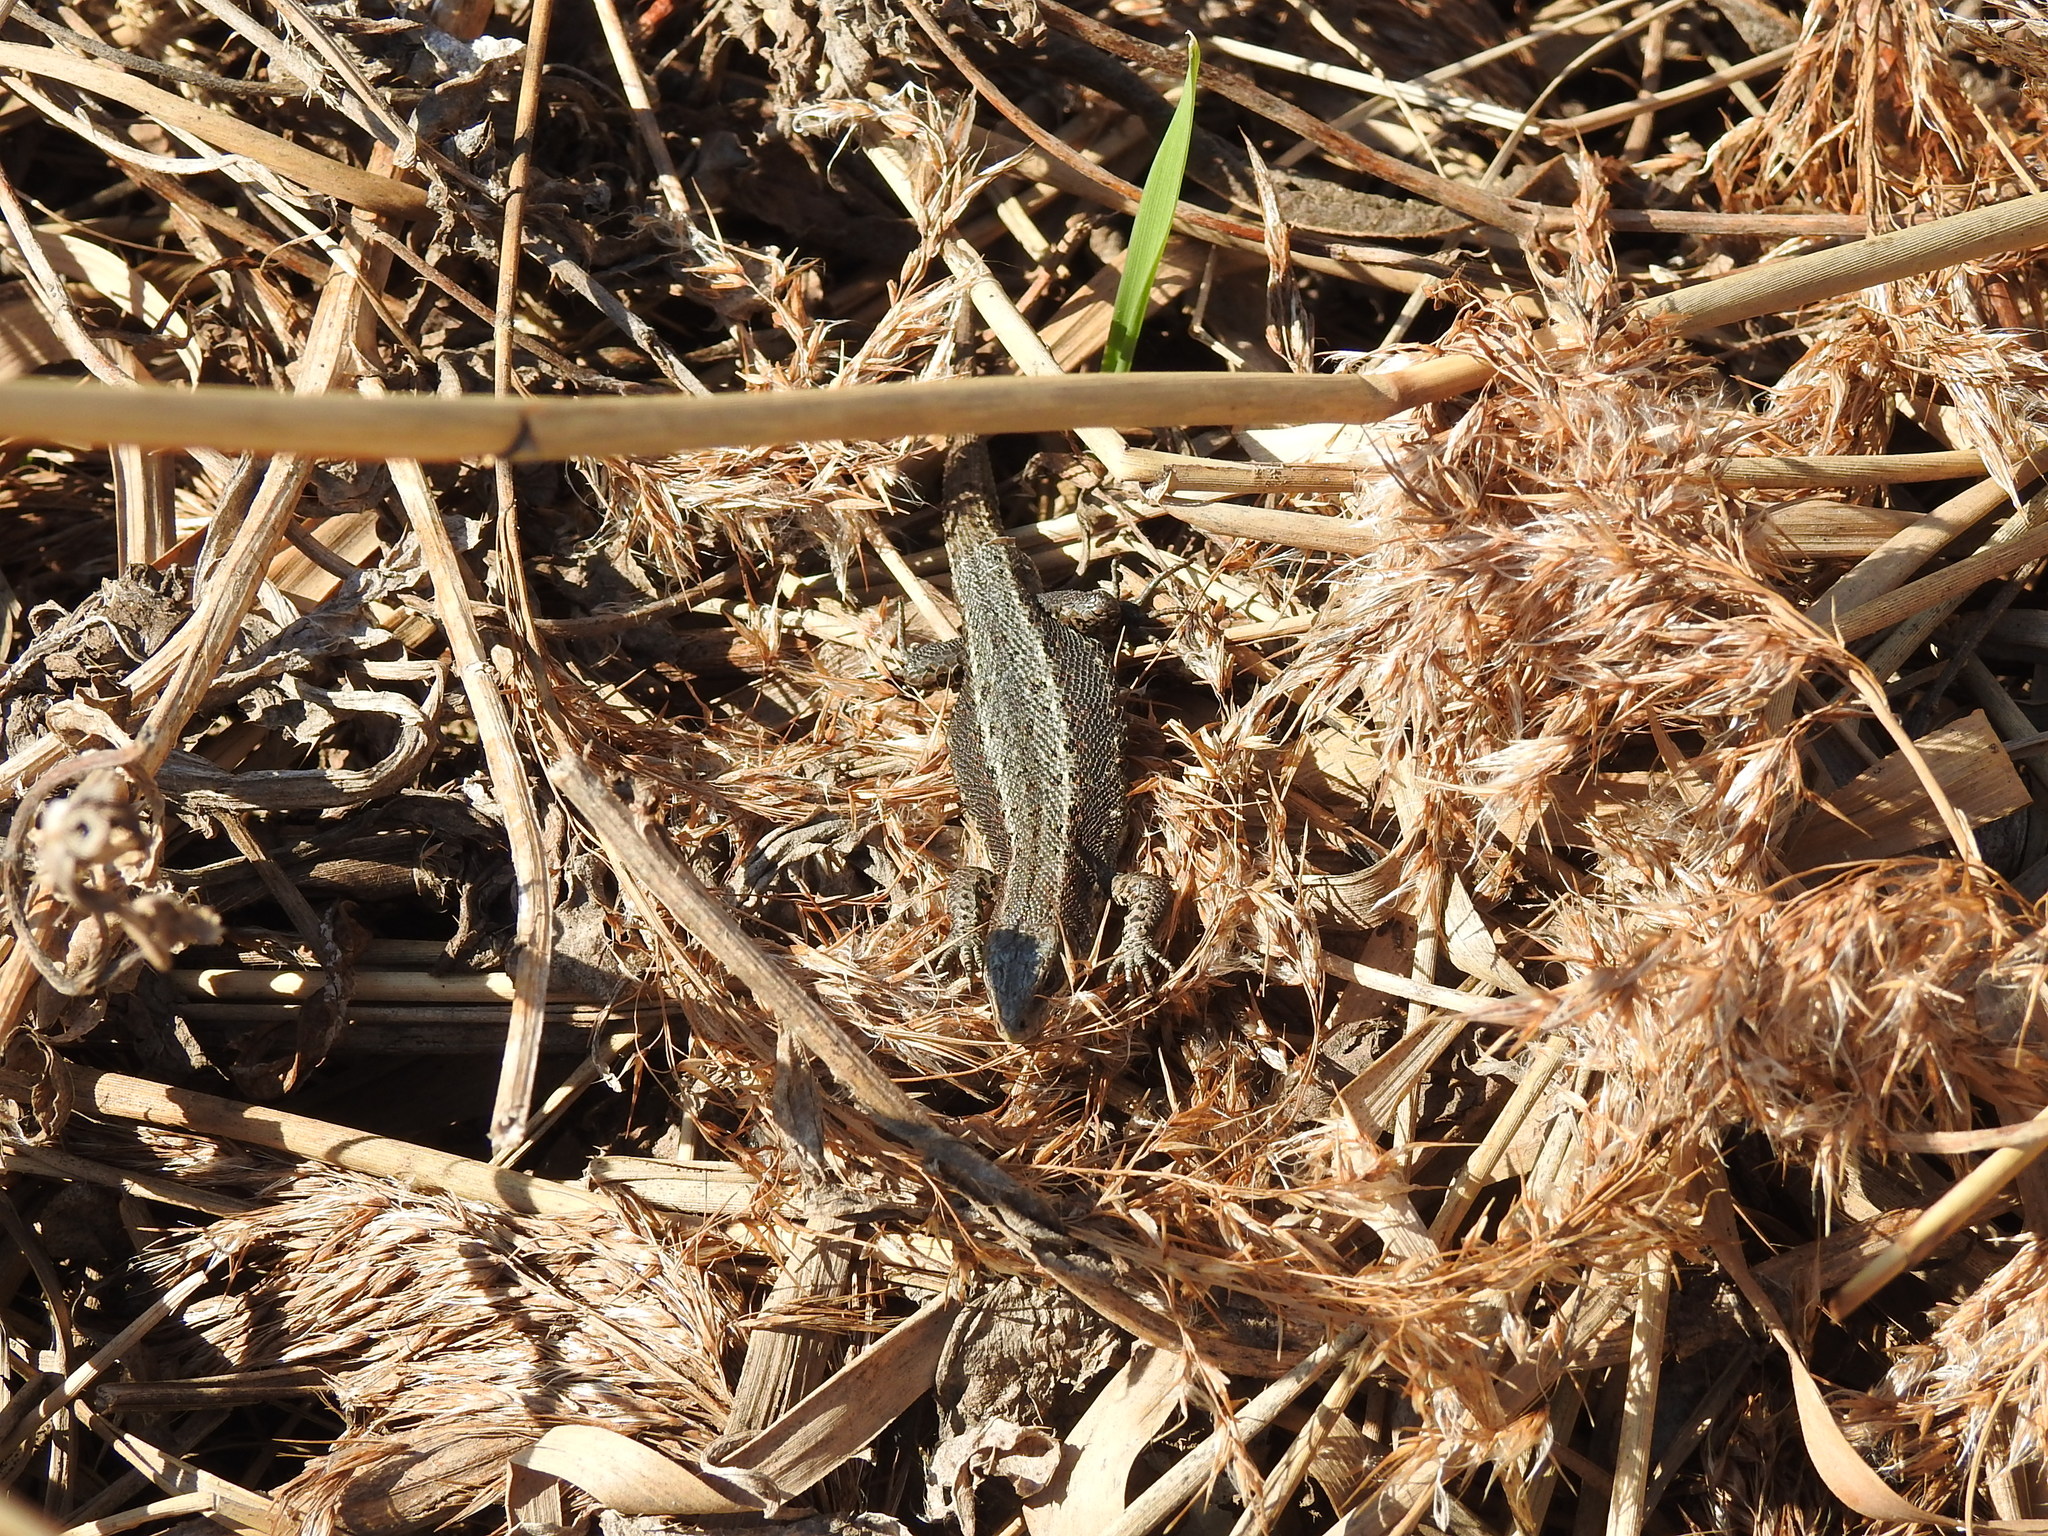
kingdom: Animalia
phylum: Chordata
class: Squamata
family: Lacertidae
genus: Zootoca
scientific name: Zootoca vivipara
